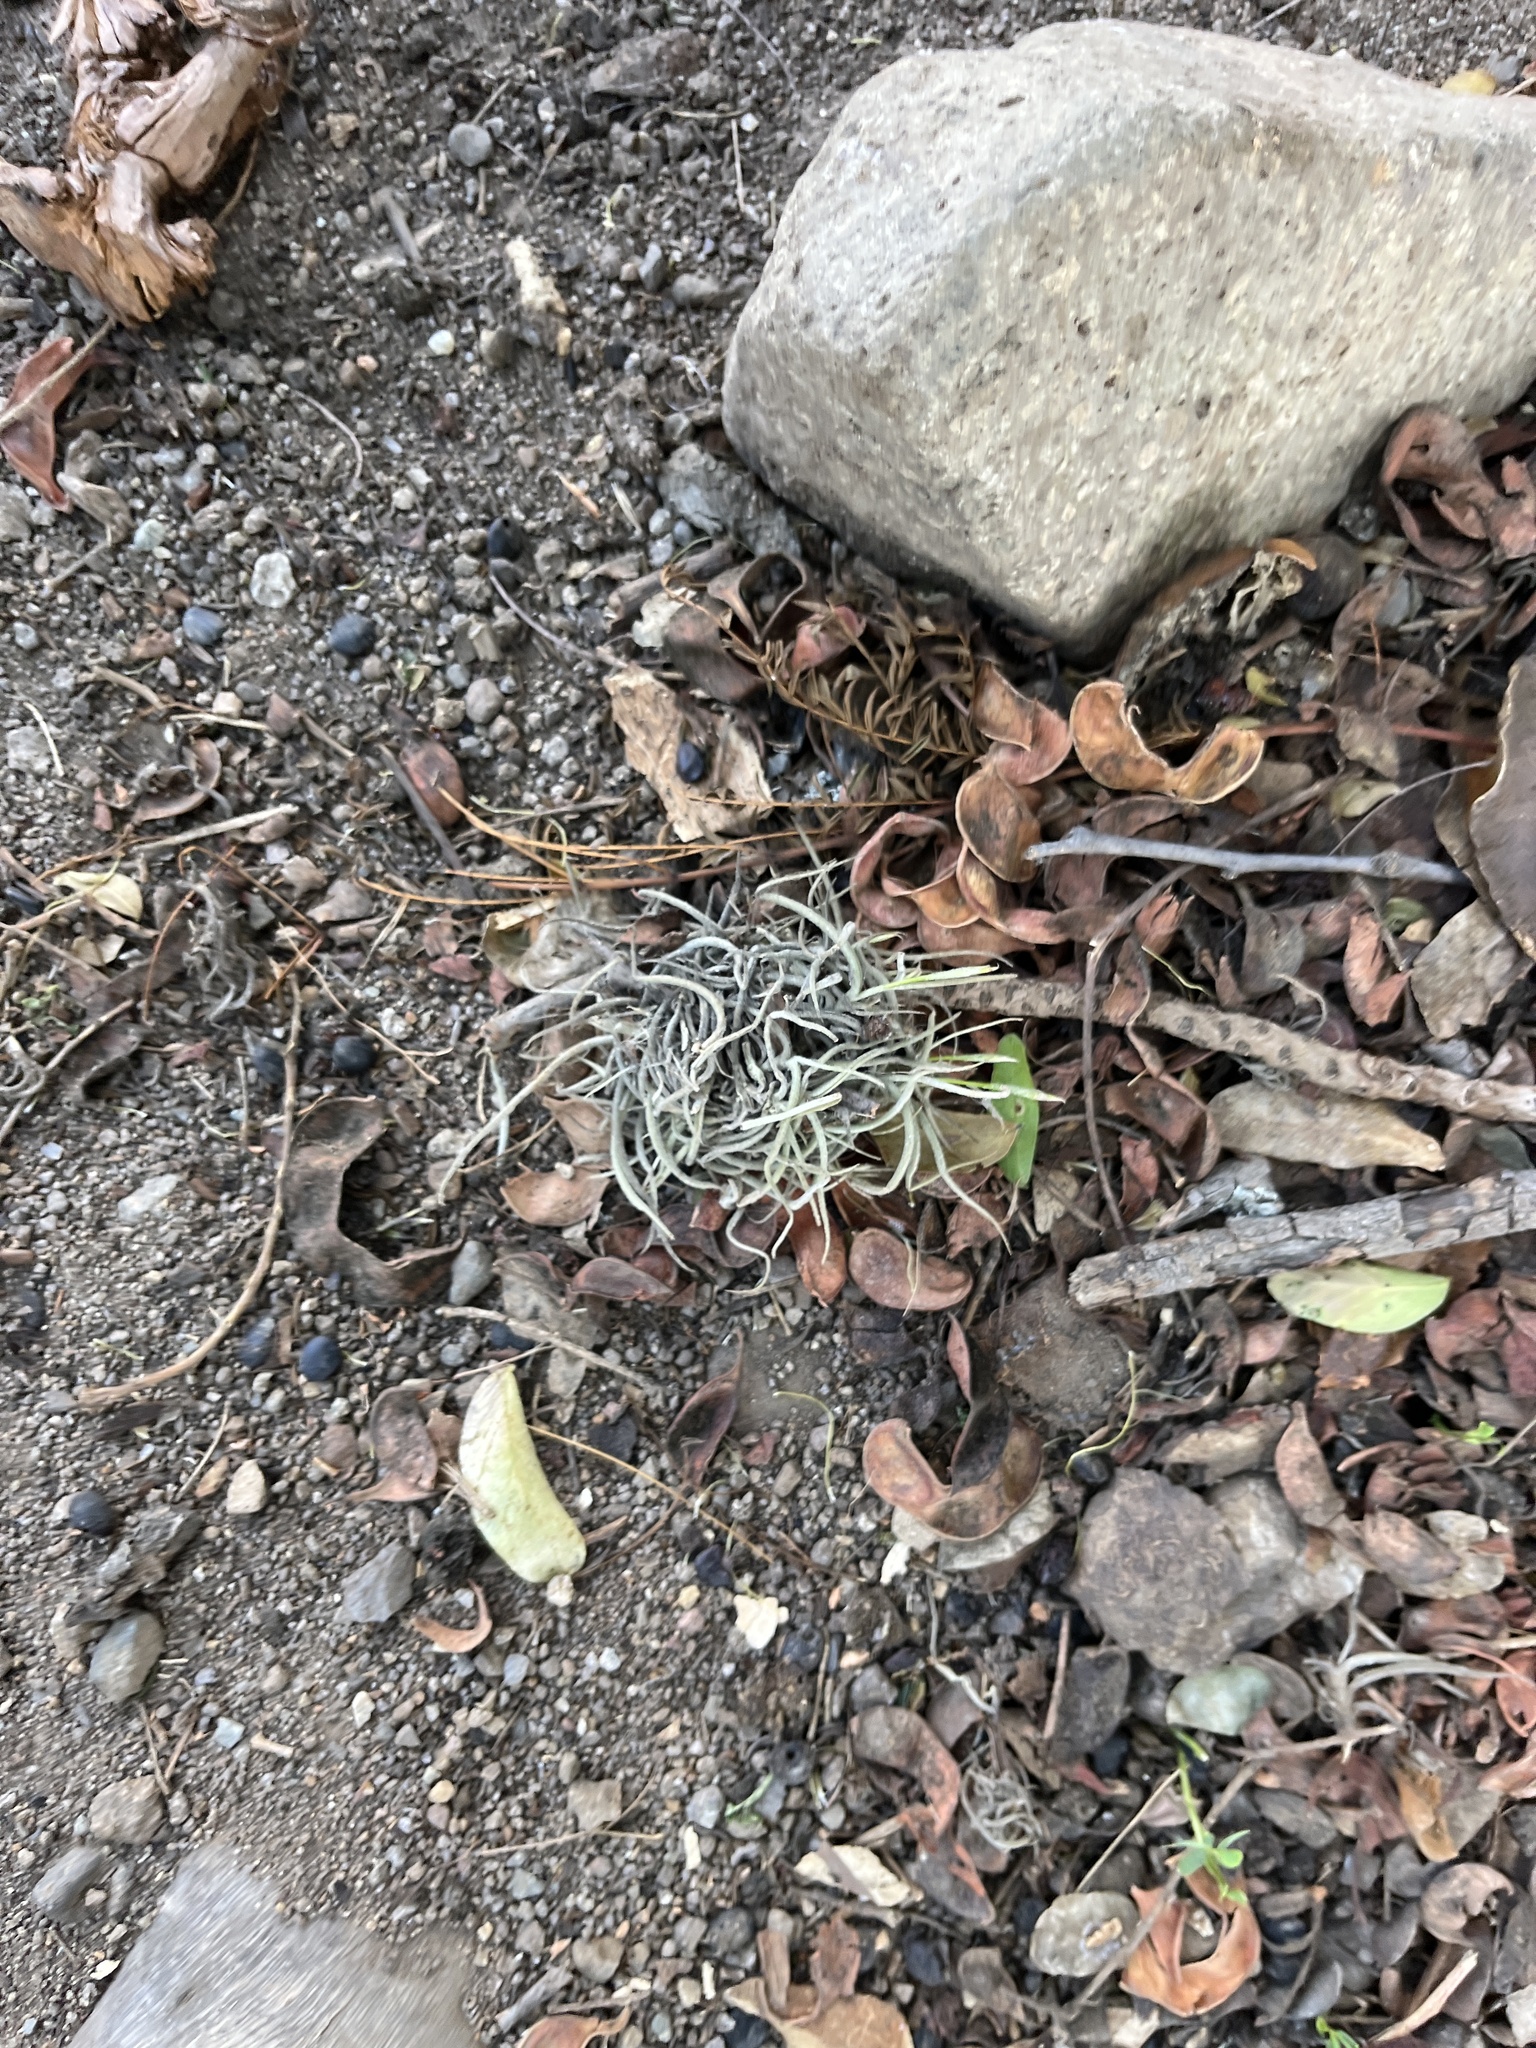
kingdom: Plantae
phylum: Tracheophyta
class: Liliopsida
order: Poales
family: Bromeliaceae
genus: Tillandsia
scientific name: Tillandsia recurvata
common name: Small ballmoss
